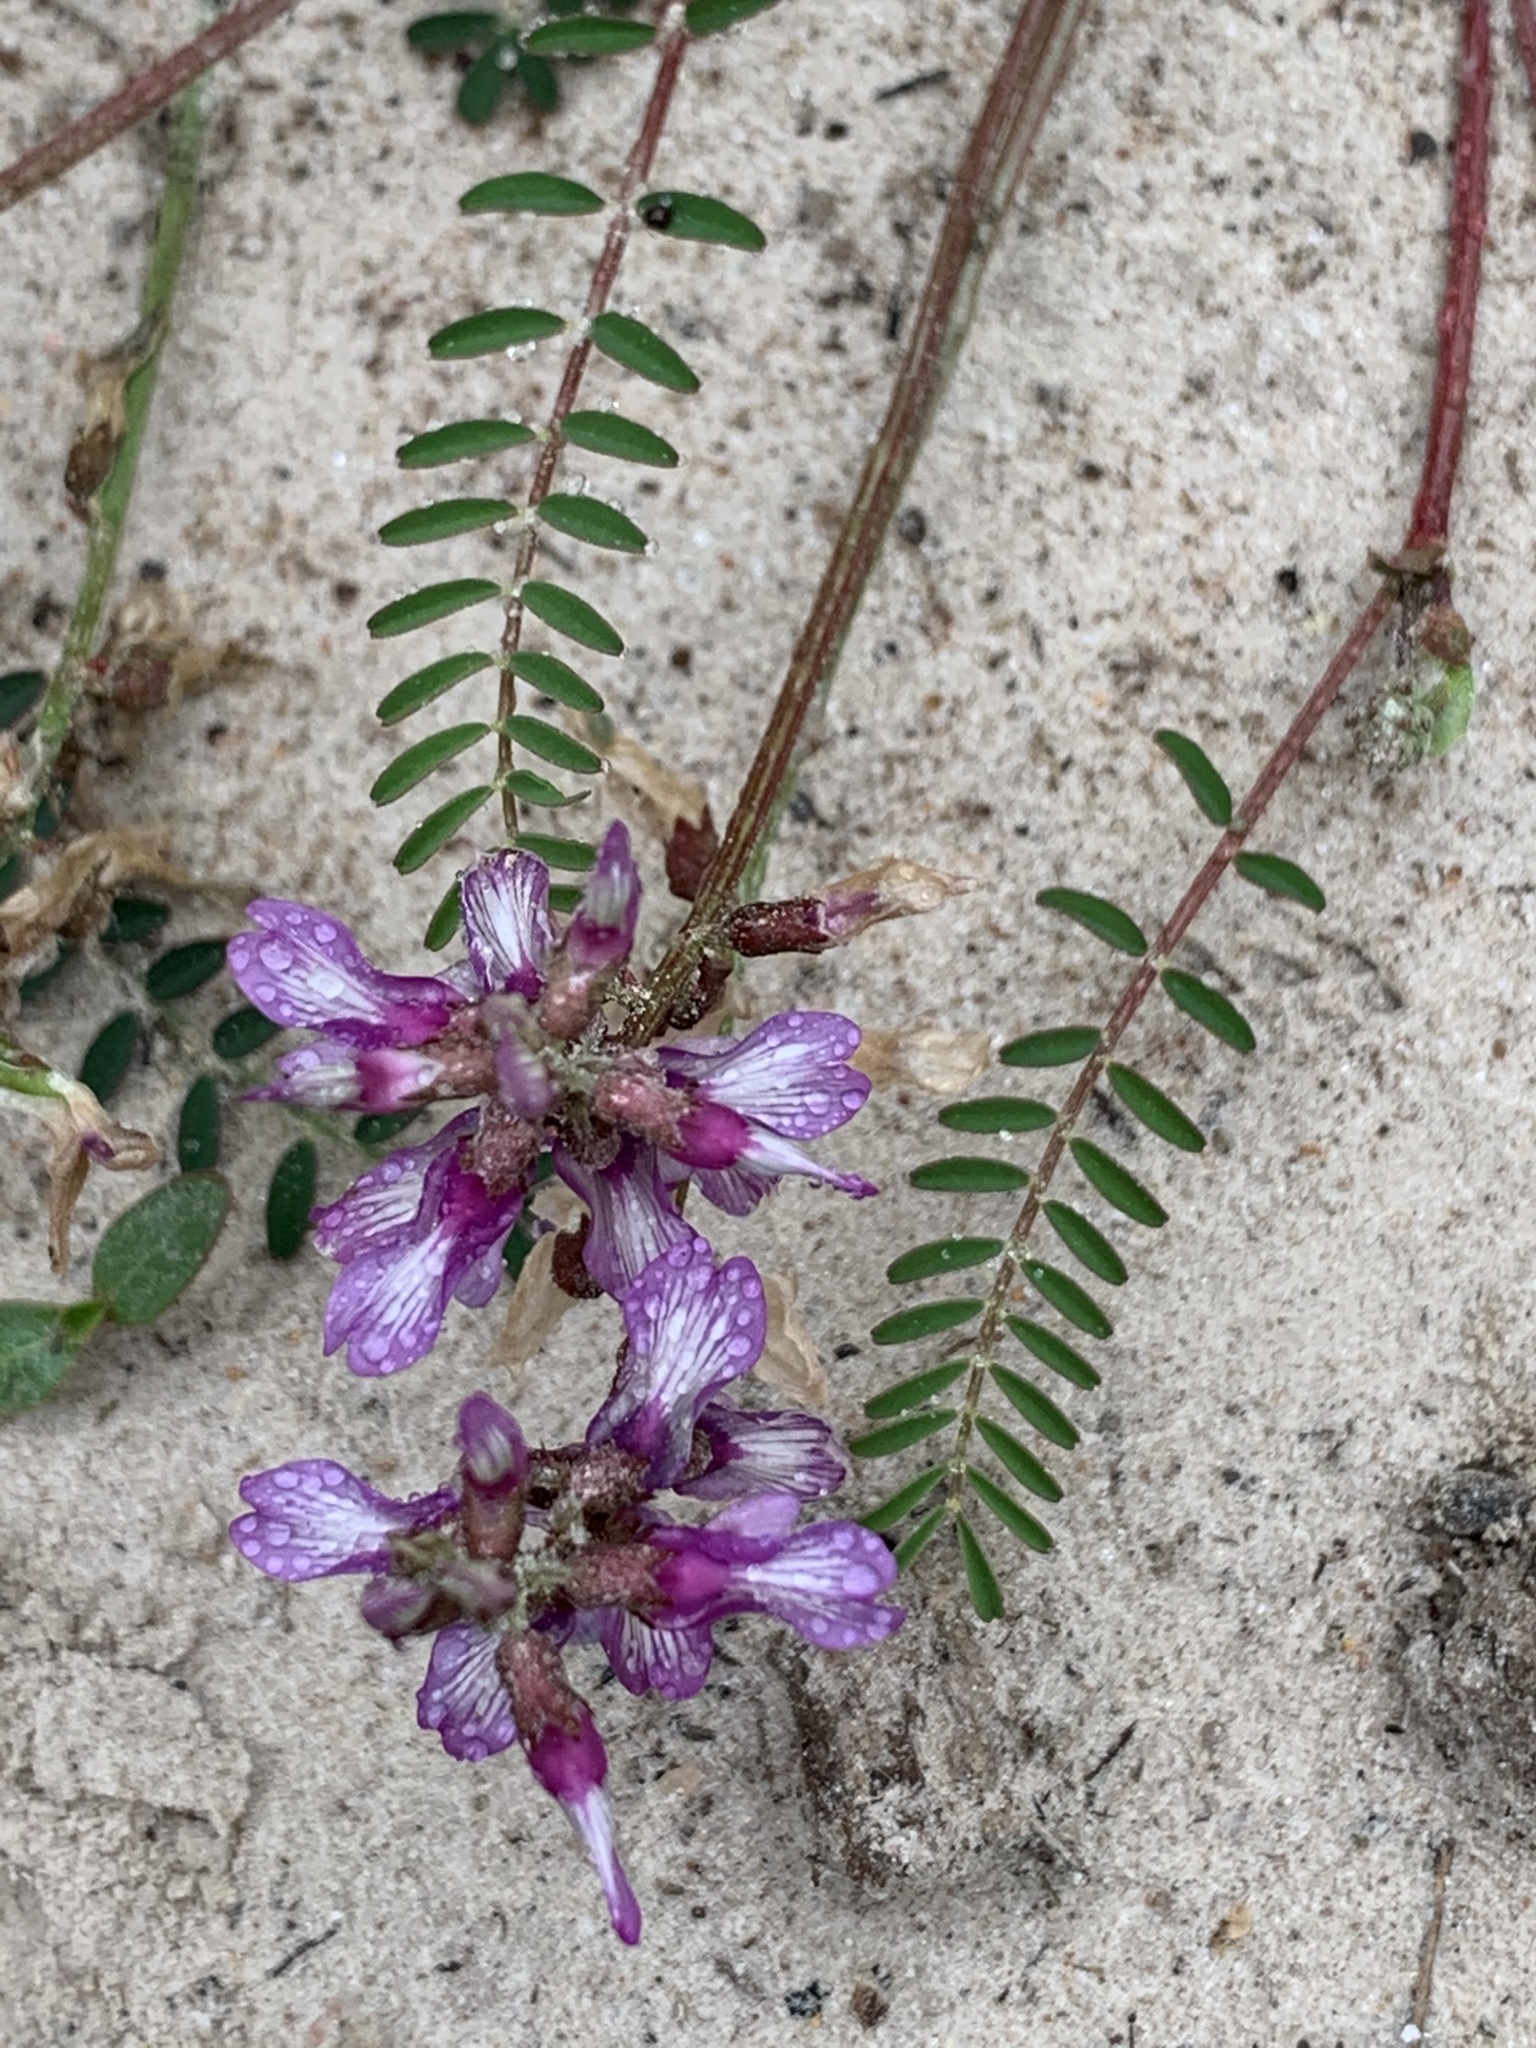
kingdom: Plantae
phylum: Tracheophyta
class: Magnoliopsida
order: Fabales
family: Fabaceae
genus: Astragalus
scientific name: Astragalus distortus
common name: Ozark milk-vetch
